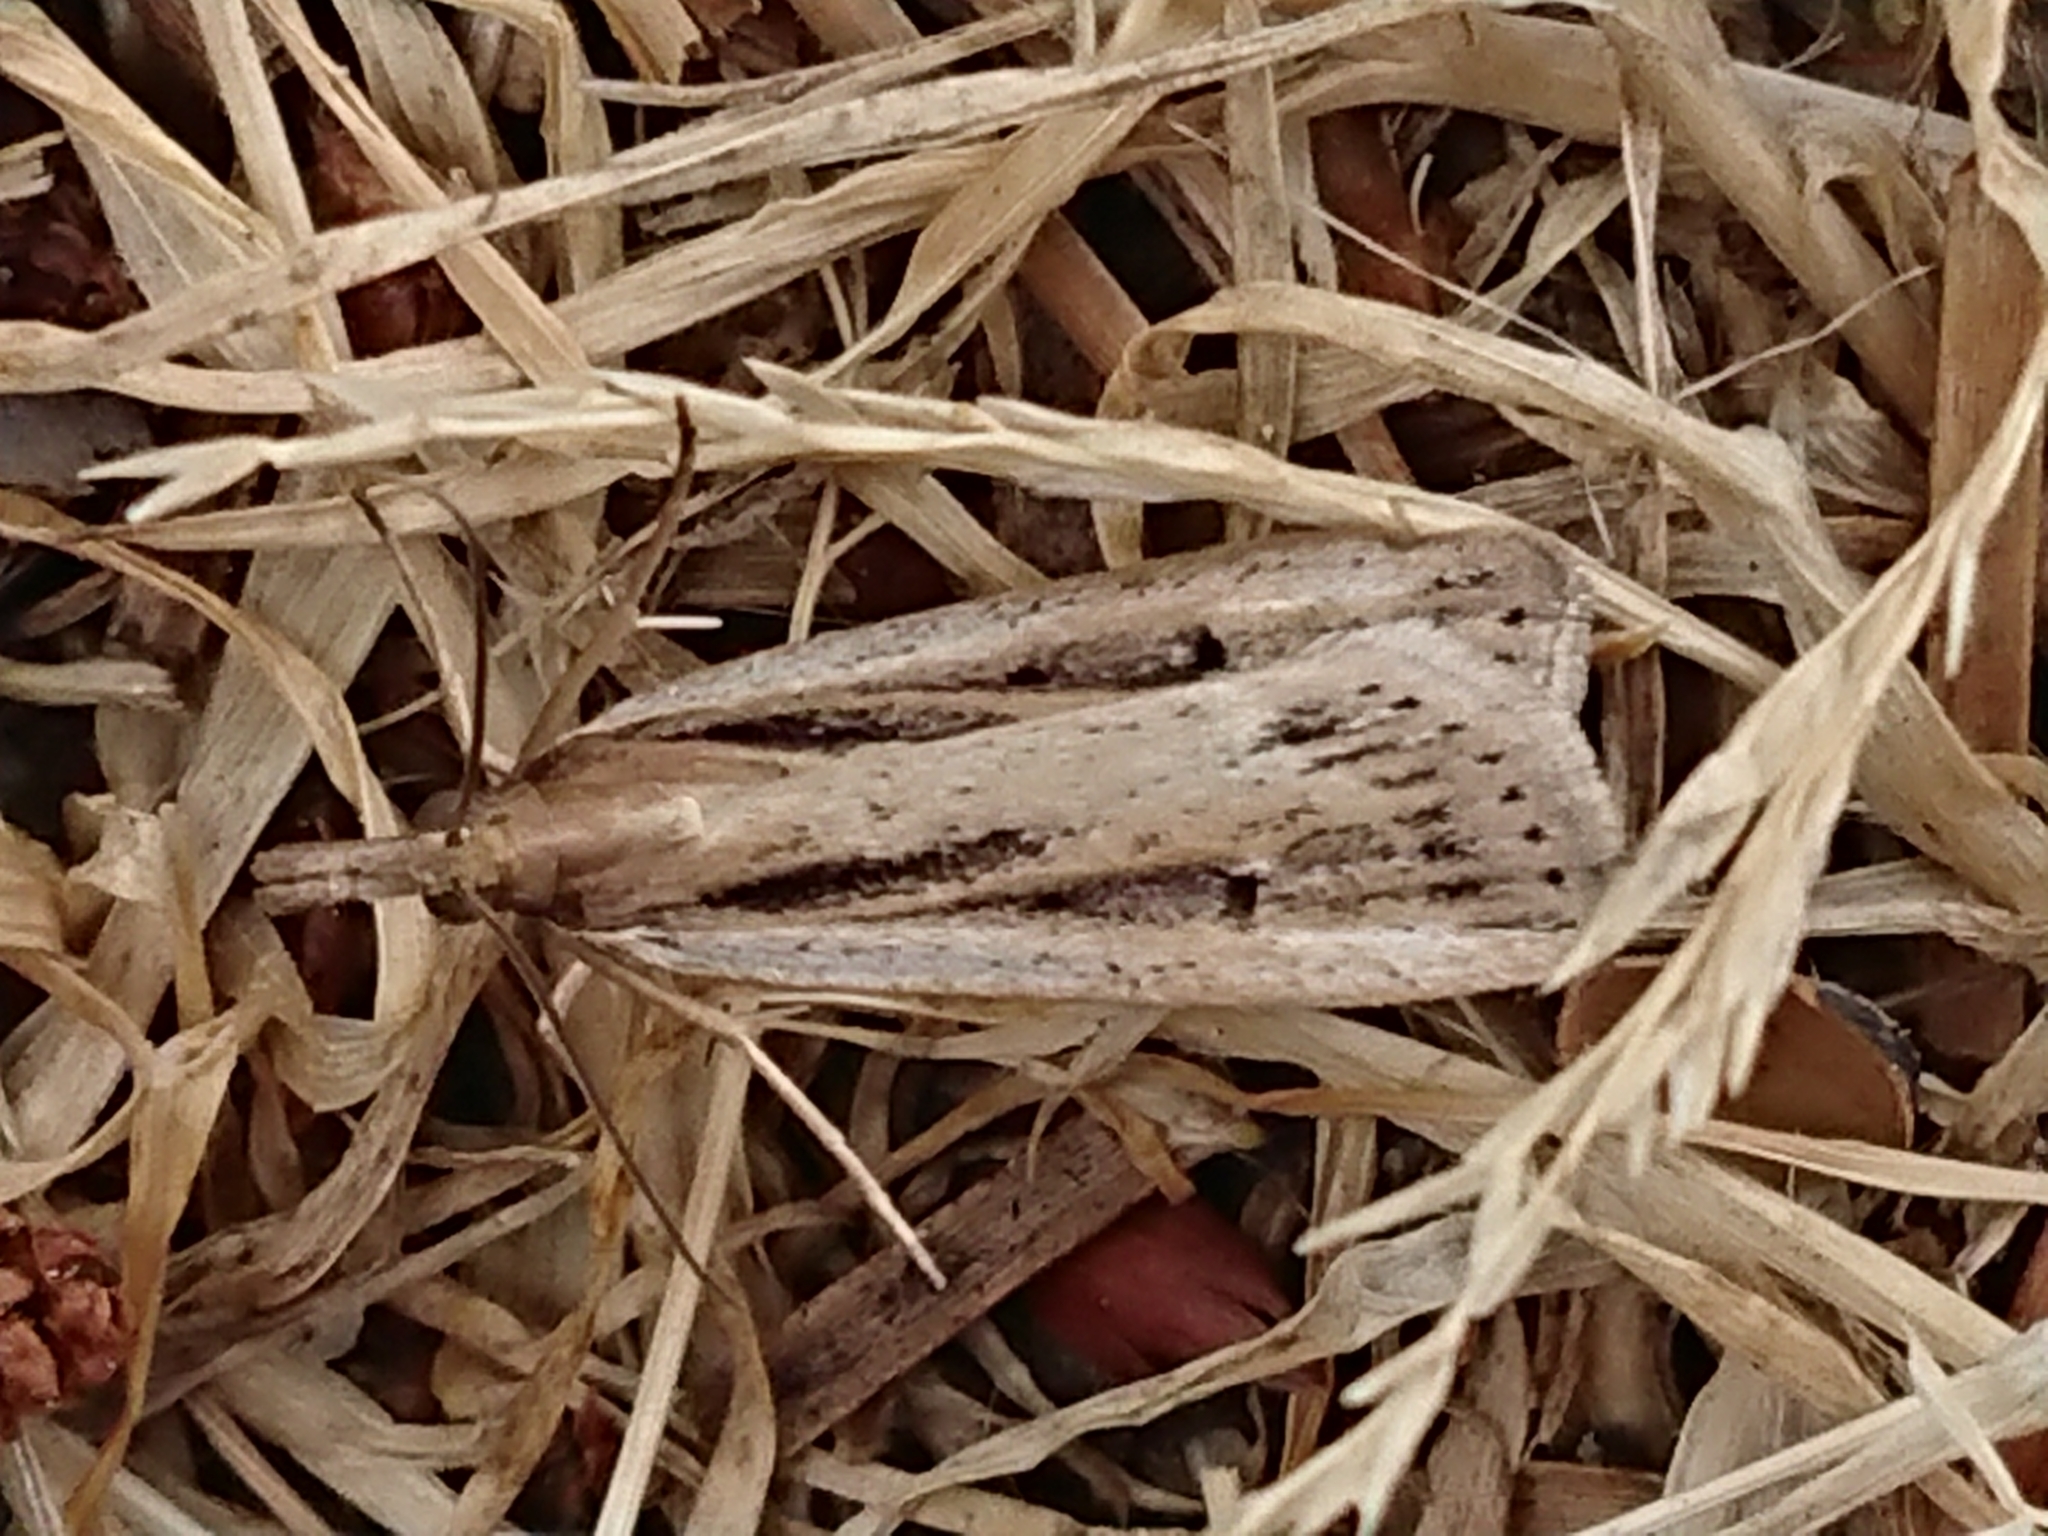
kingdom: Animalia
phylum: Arthropoda
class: Insecta
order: Lepidoptera
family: Crambidae
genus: Eudonia
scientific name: Eudonia sabulosella
